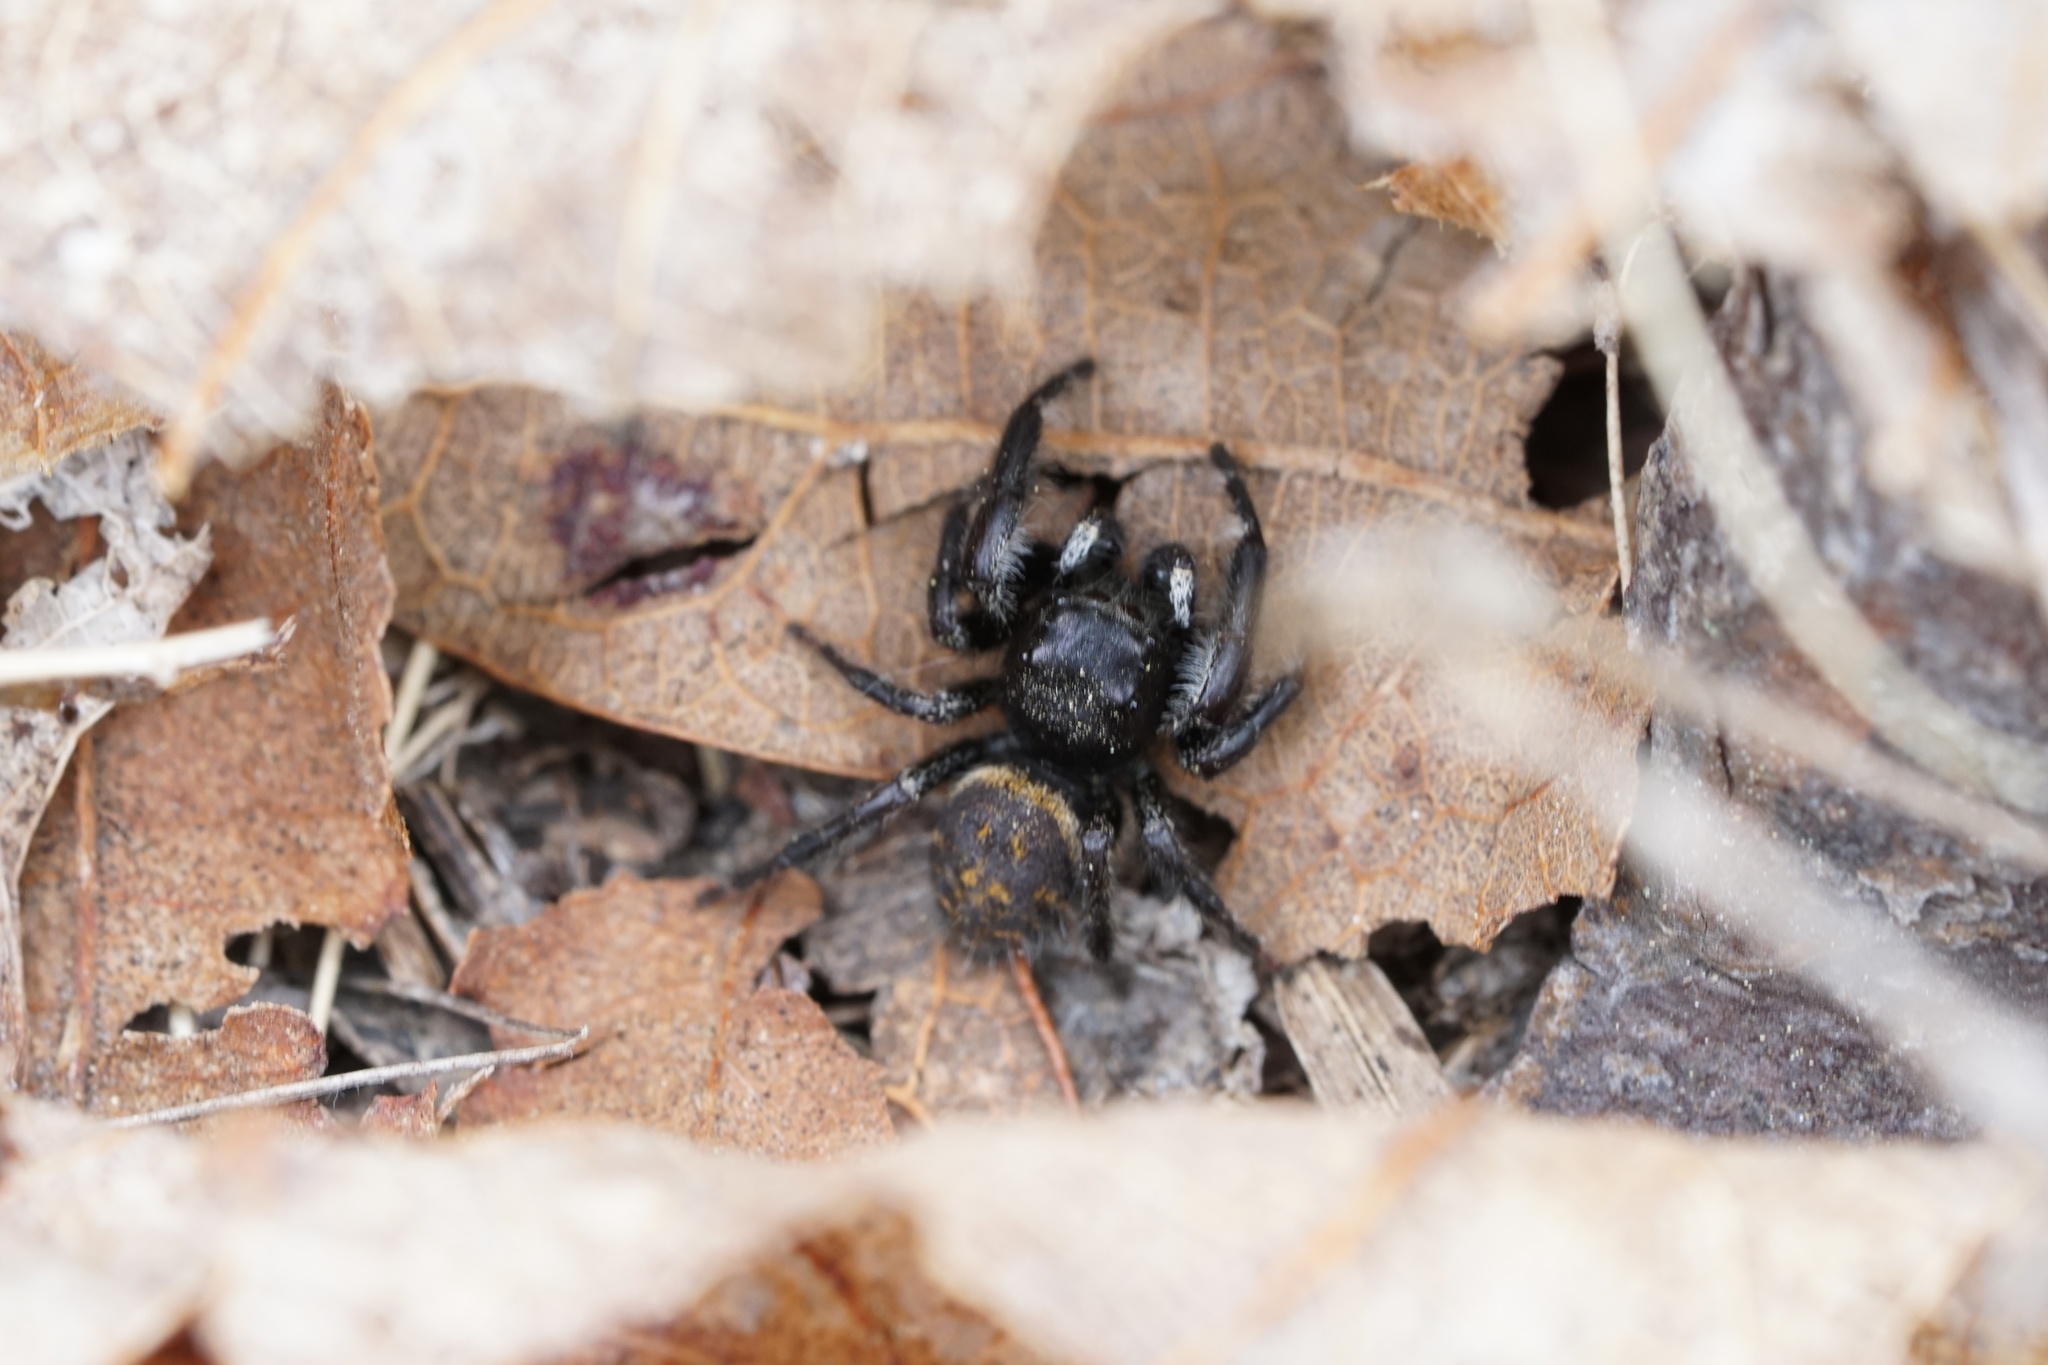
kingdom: Animalia
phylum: Arthropoda
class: Arachnida
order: Araneae
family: Salticidae
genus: Phidippus
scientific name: Phidippus princeps
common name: Grayish jumping spider
